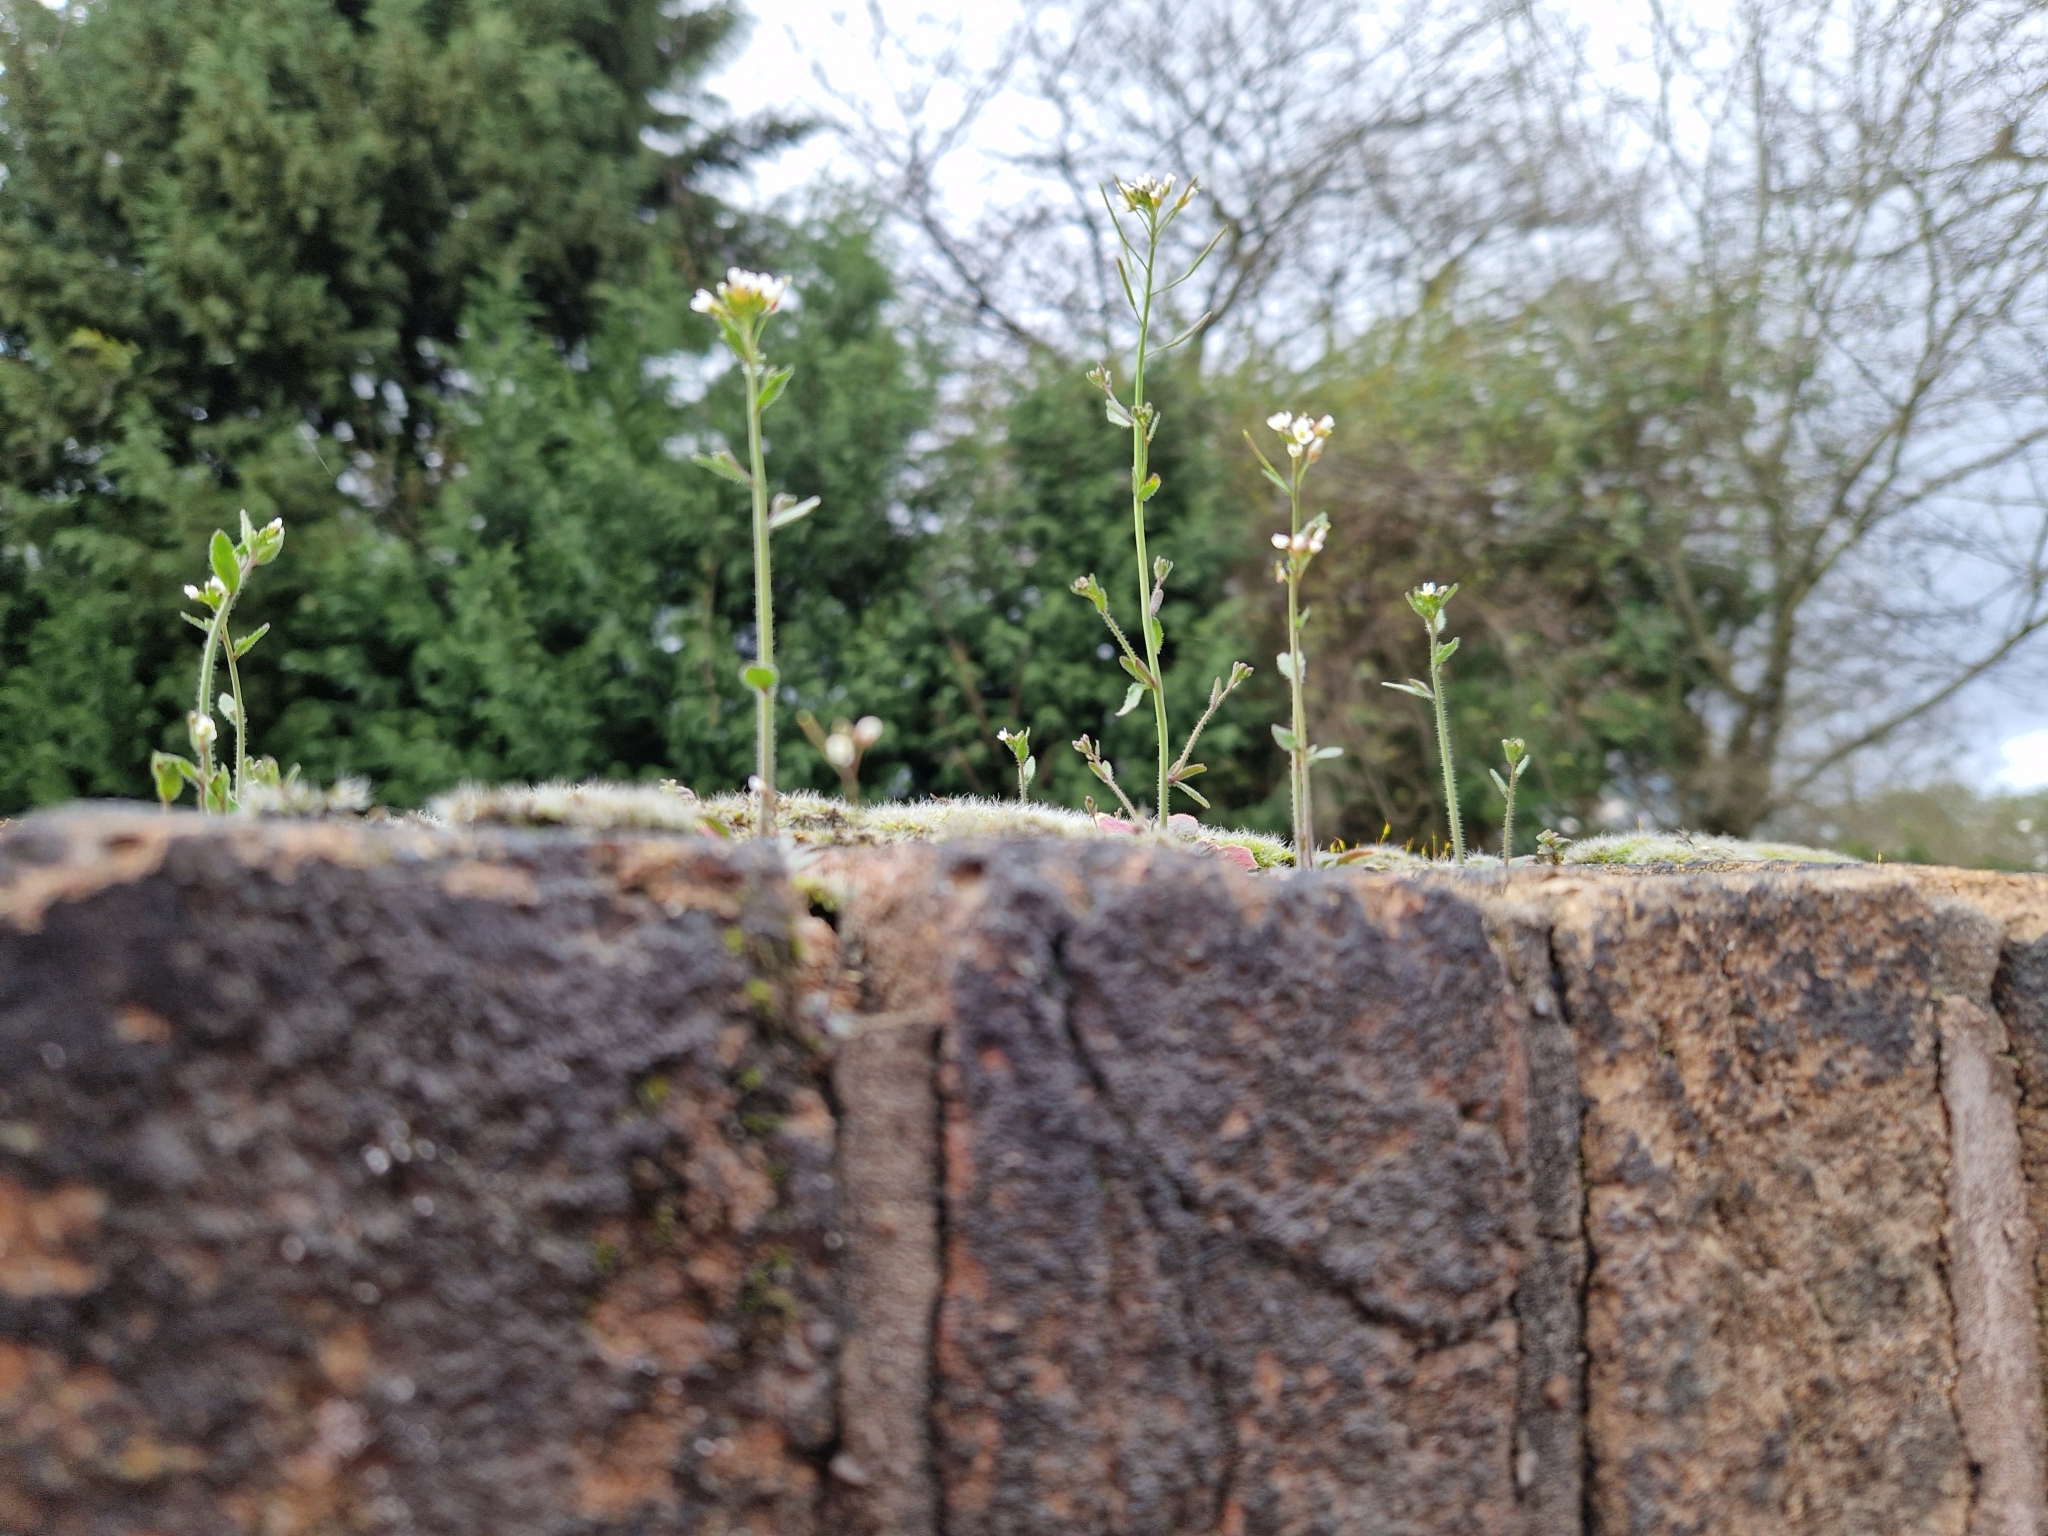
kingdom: Plantae
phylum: Tracheophyta
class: Magnoliopsida
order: Brassicales
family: Brassicaceae
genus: Arabidopsis
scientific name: Arabidopsis thaliana
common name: Thale cress
